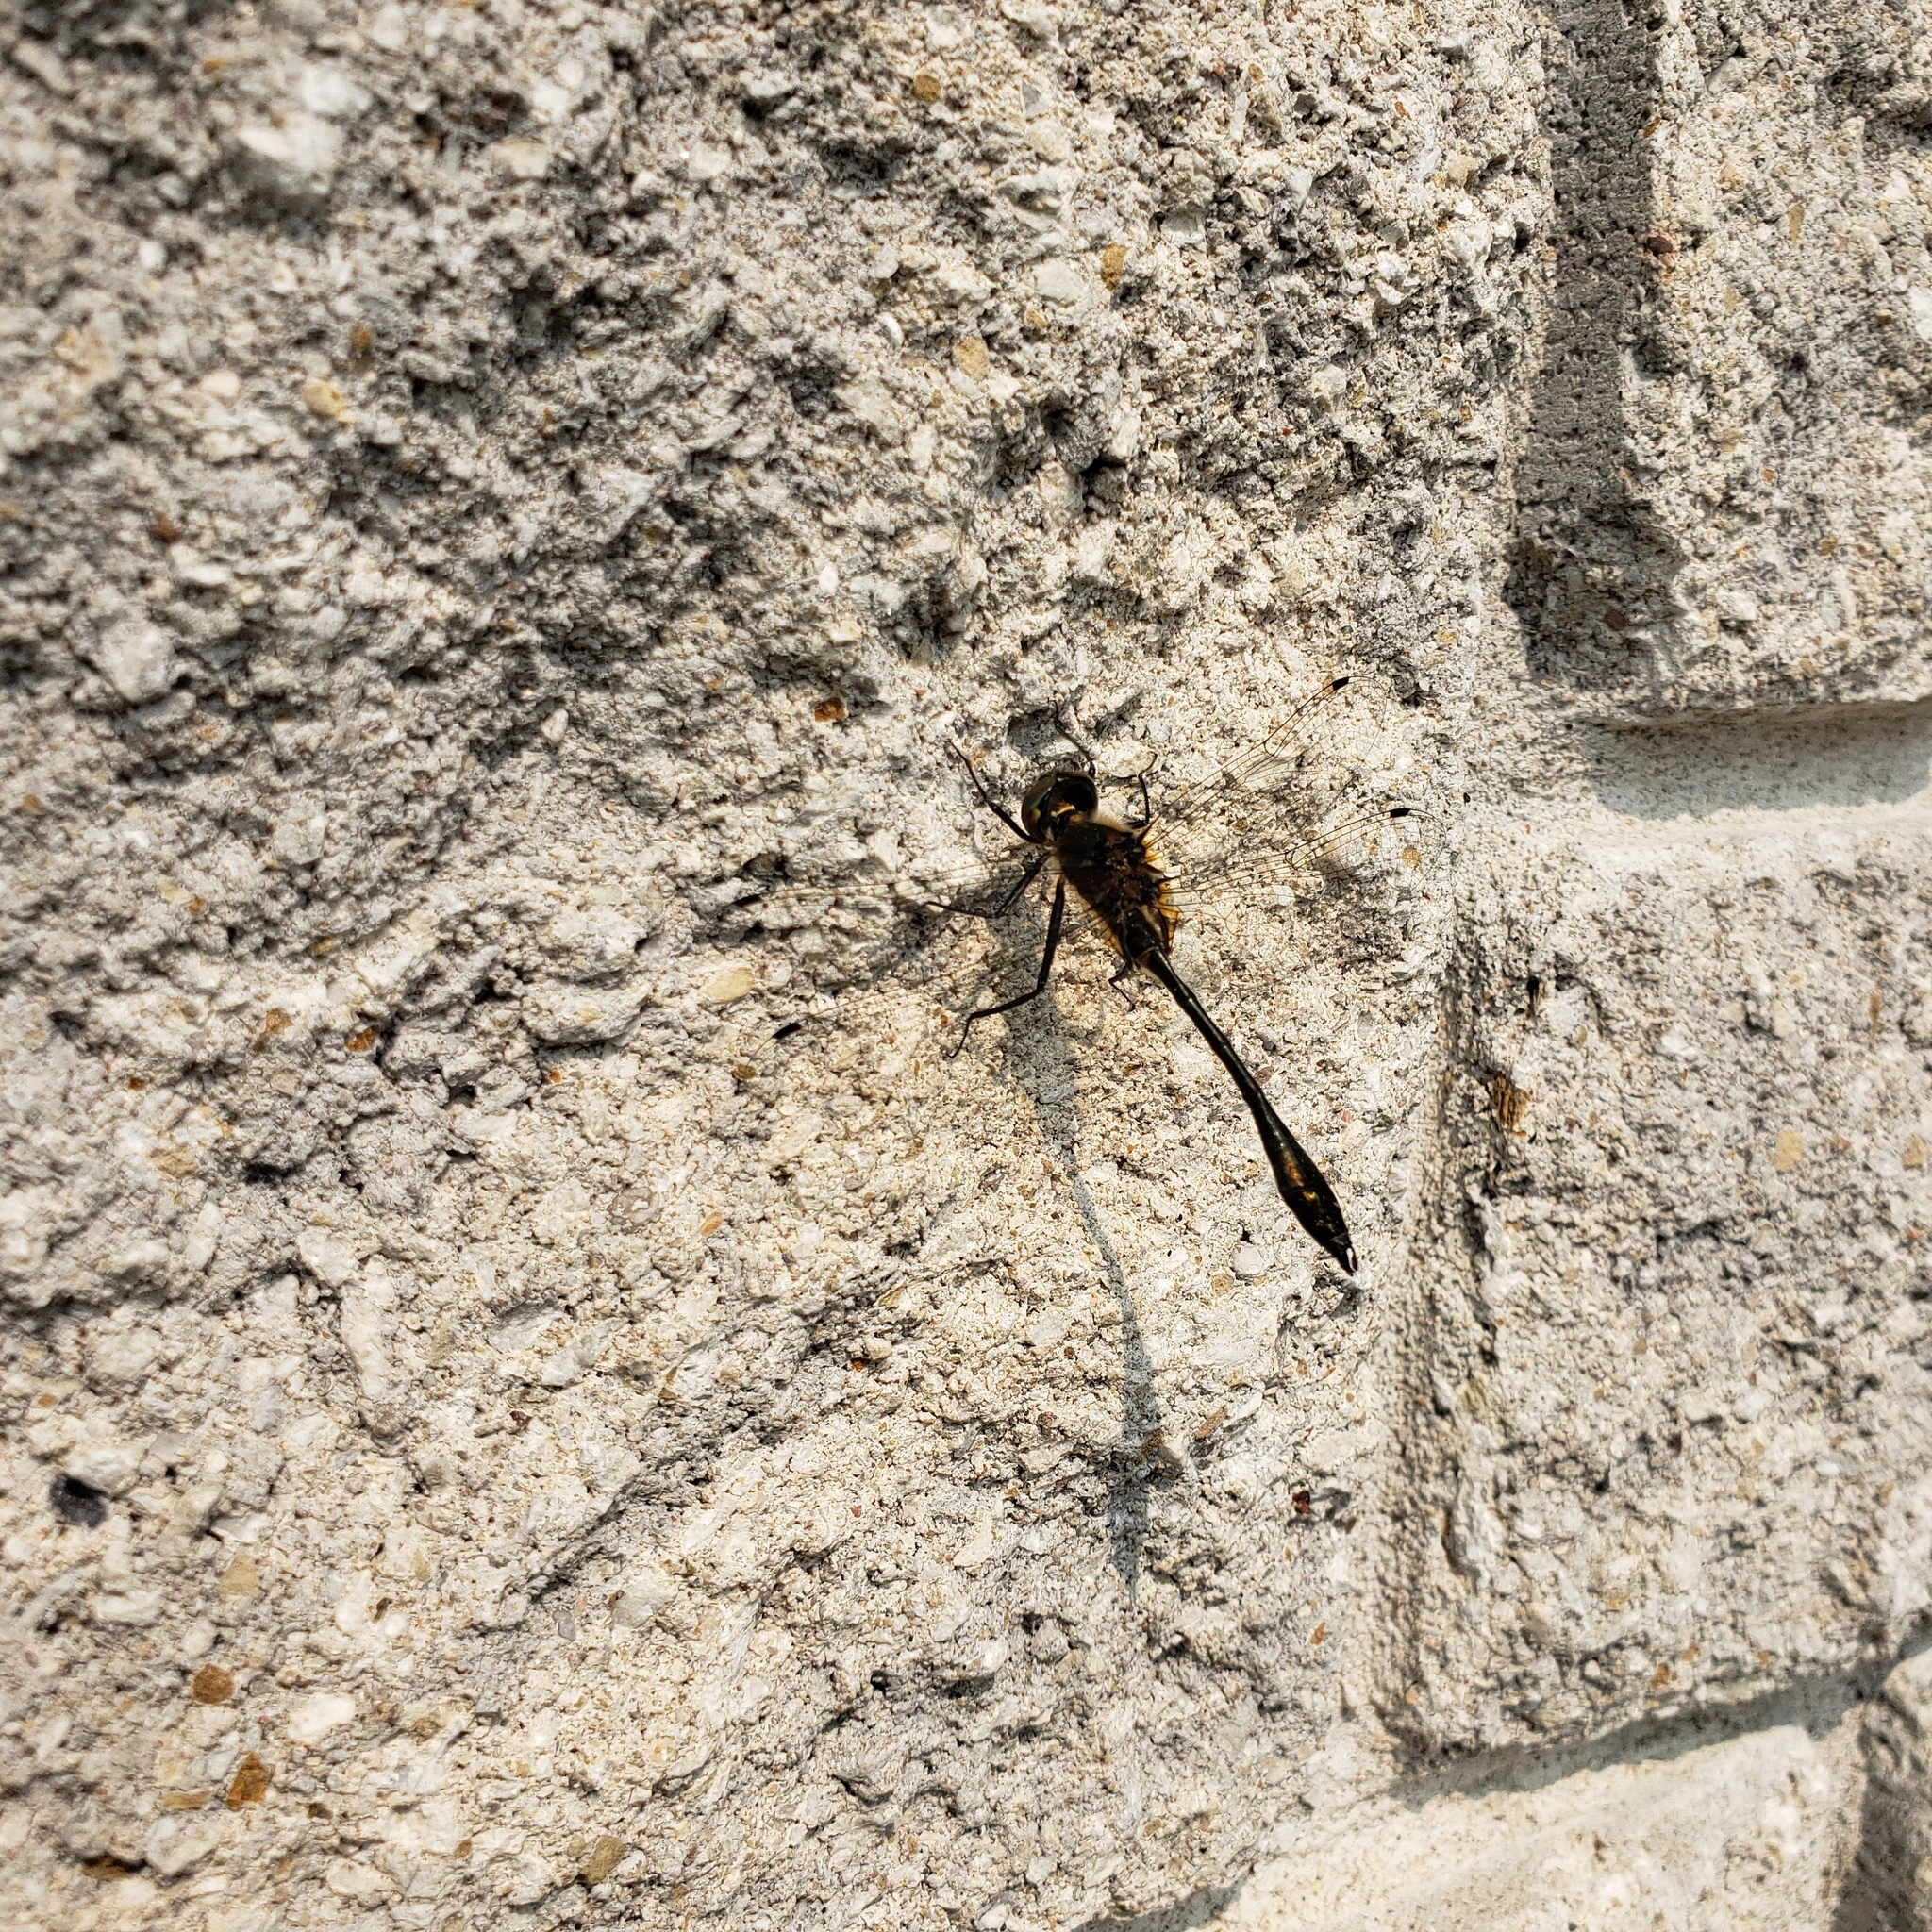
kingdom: Animalia
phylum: Arthropoda
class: Insecta
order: Odonata
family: Corduliidae
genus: Dorocordulia
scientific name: Dorocordulia libera
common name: Racket-tailed emerald
